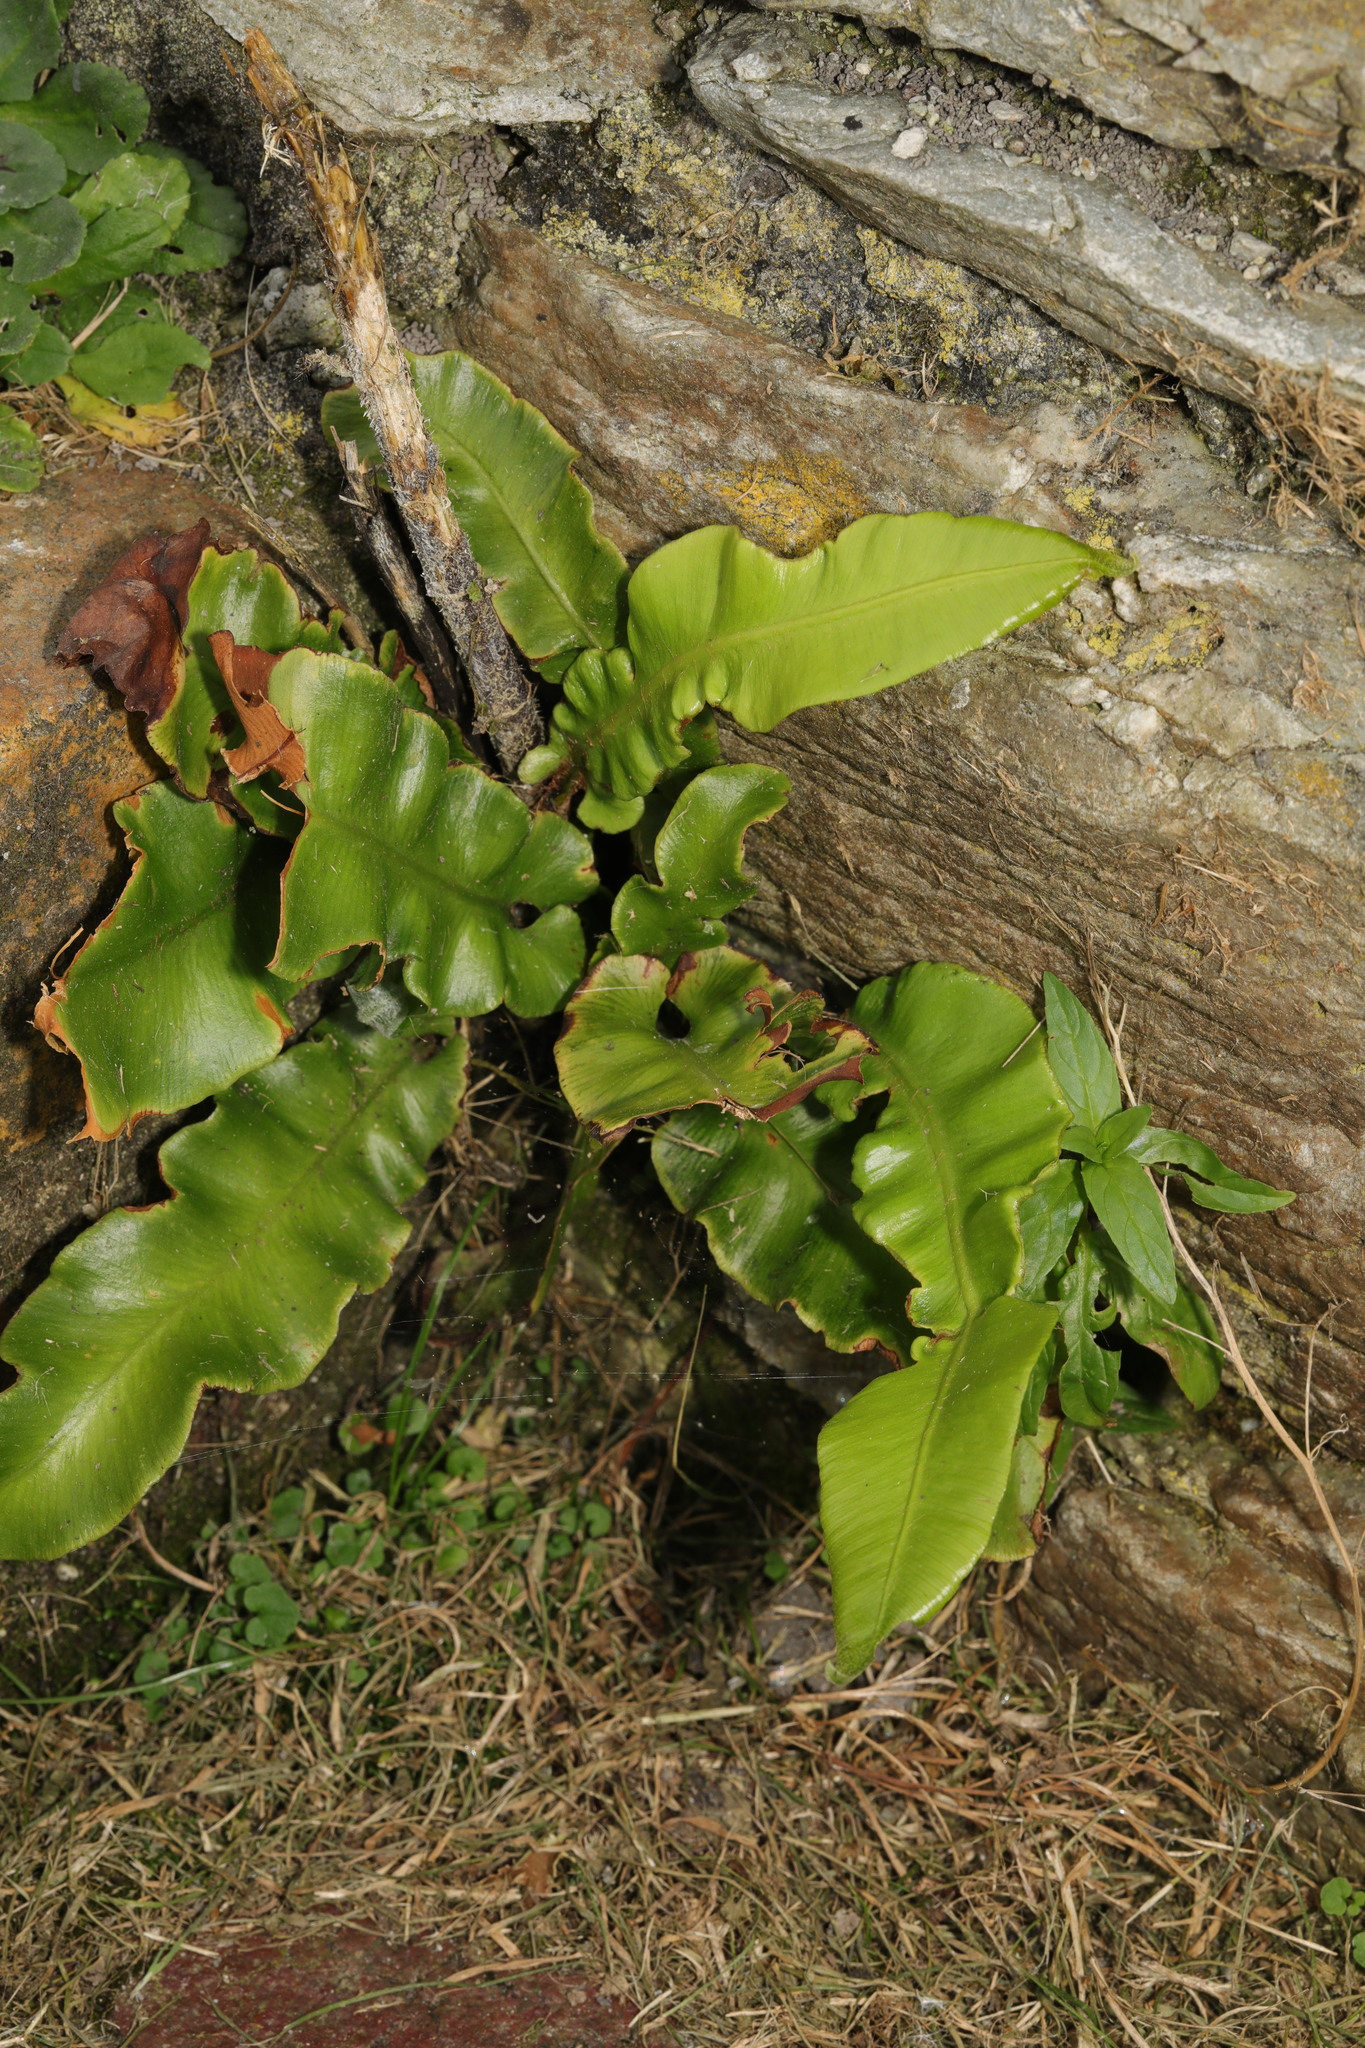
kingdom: Plantae
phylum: Tracheophyta
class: Polypodiopsida
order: Polypodiales
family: Aspleniaceae
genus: Asplenium
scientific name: Asplenium scolopendrium
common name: Hart's-tongue fern
